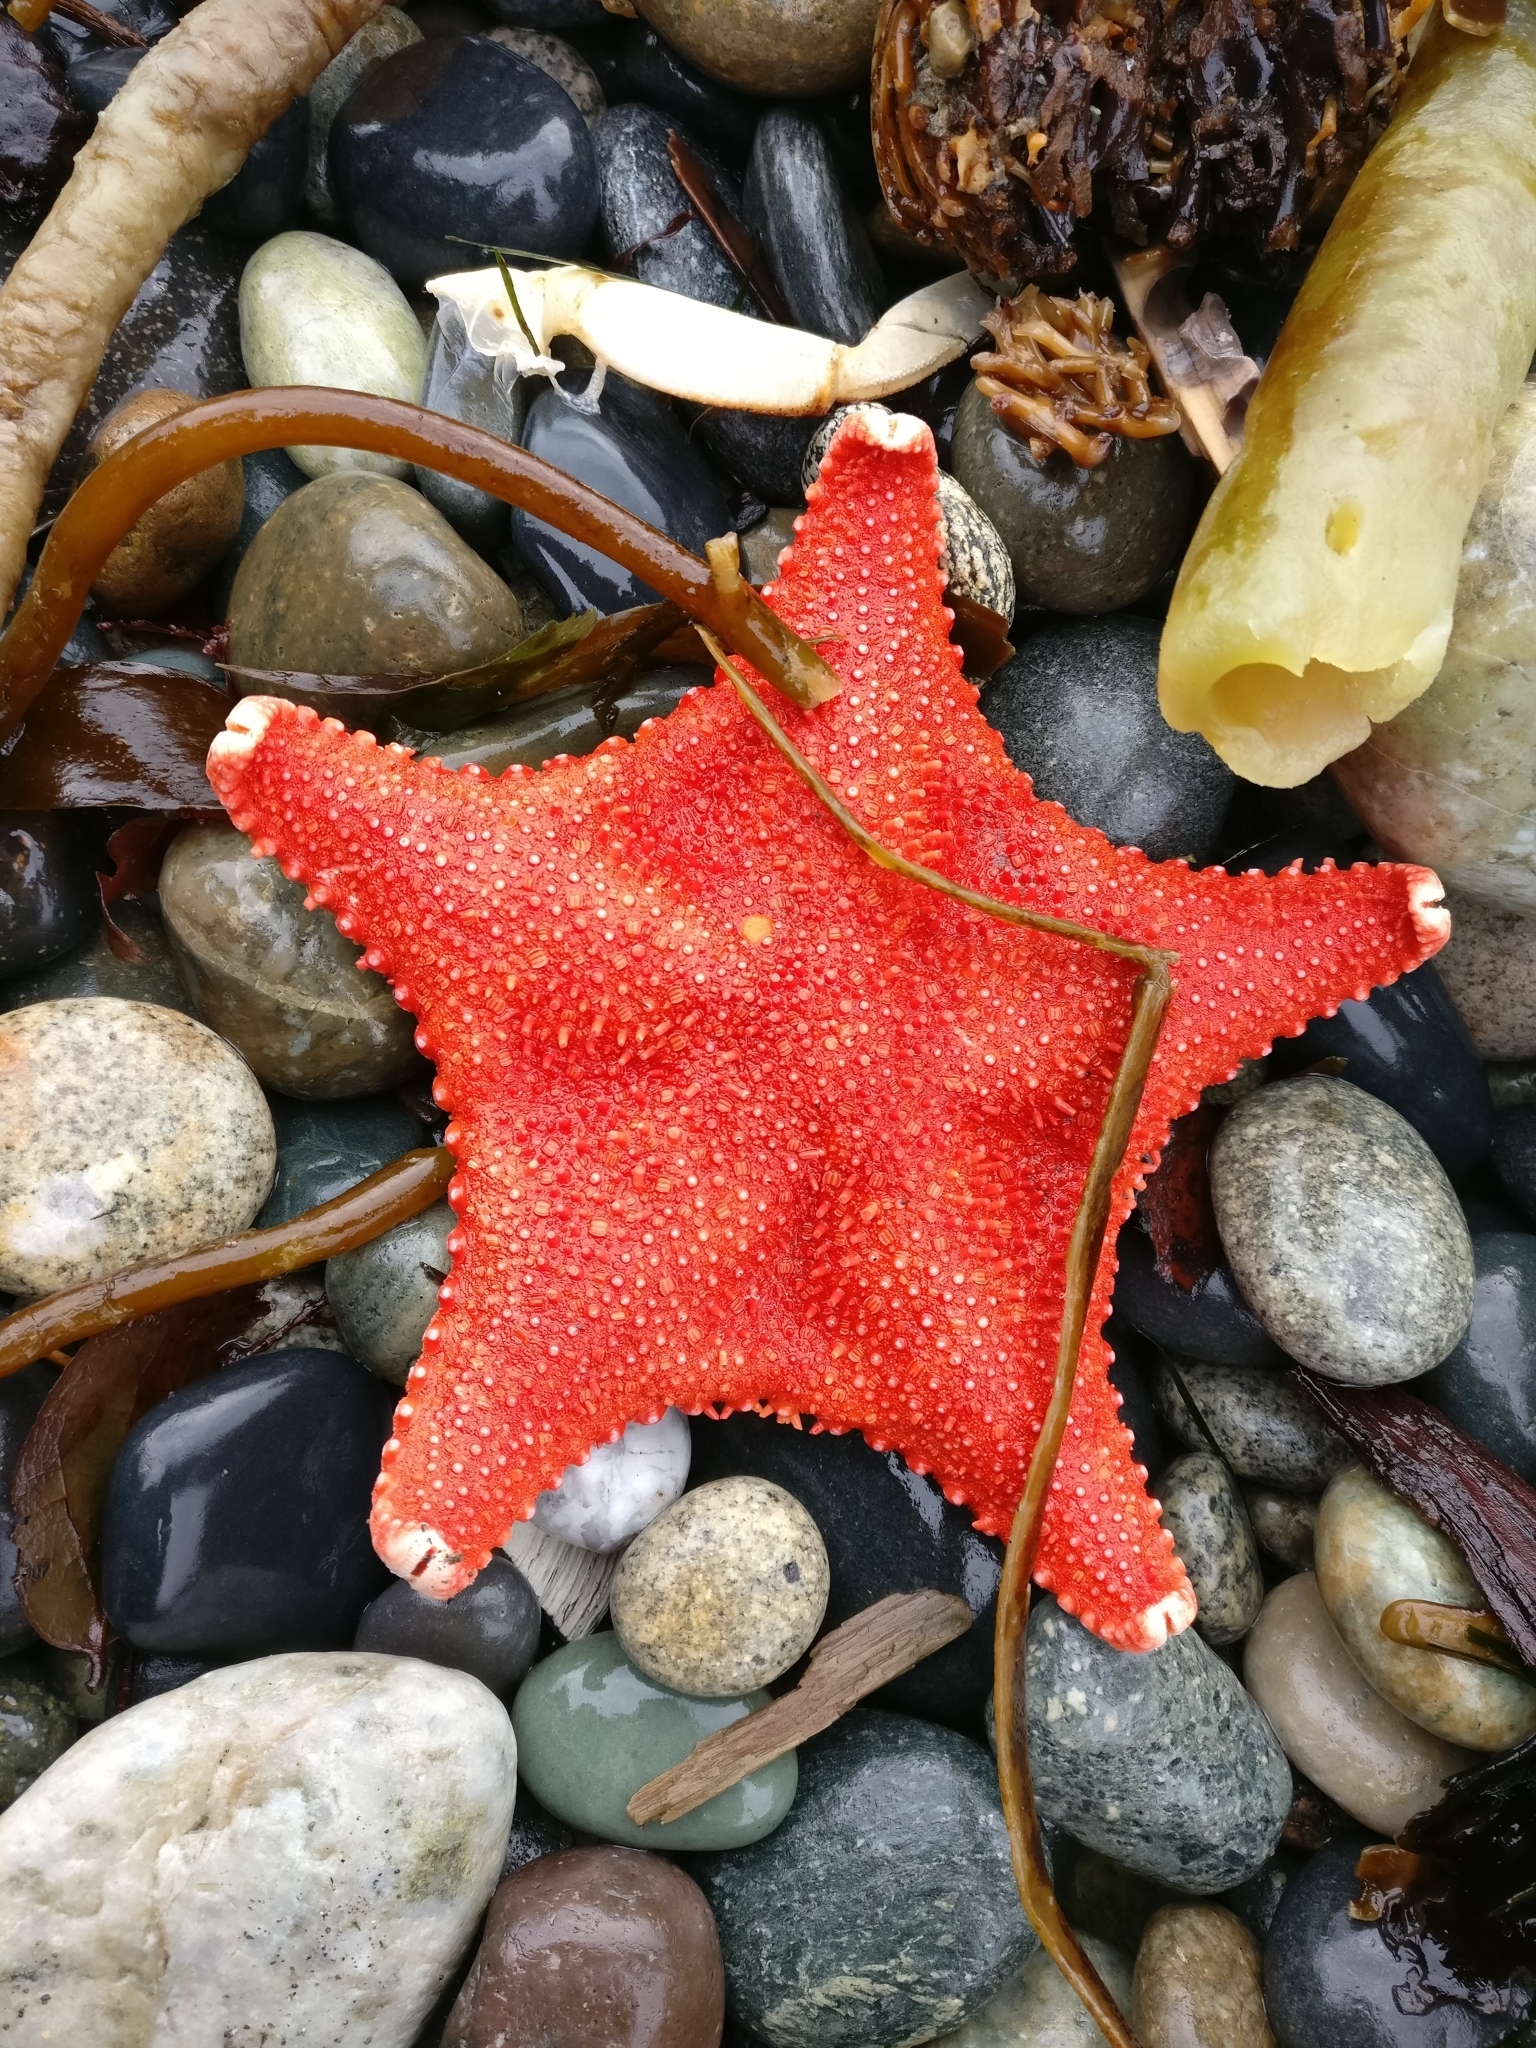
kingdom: Animalia
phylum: Echinodermata
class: Asteroidea
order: Valvatida
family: Goniasteridae
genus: Hippasteria
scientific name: Hippasteria phrygiana
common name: Arctic cushion star
